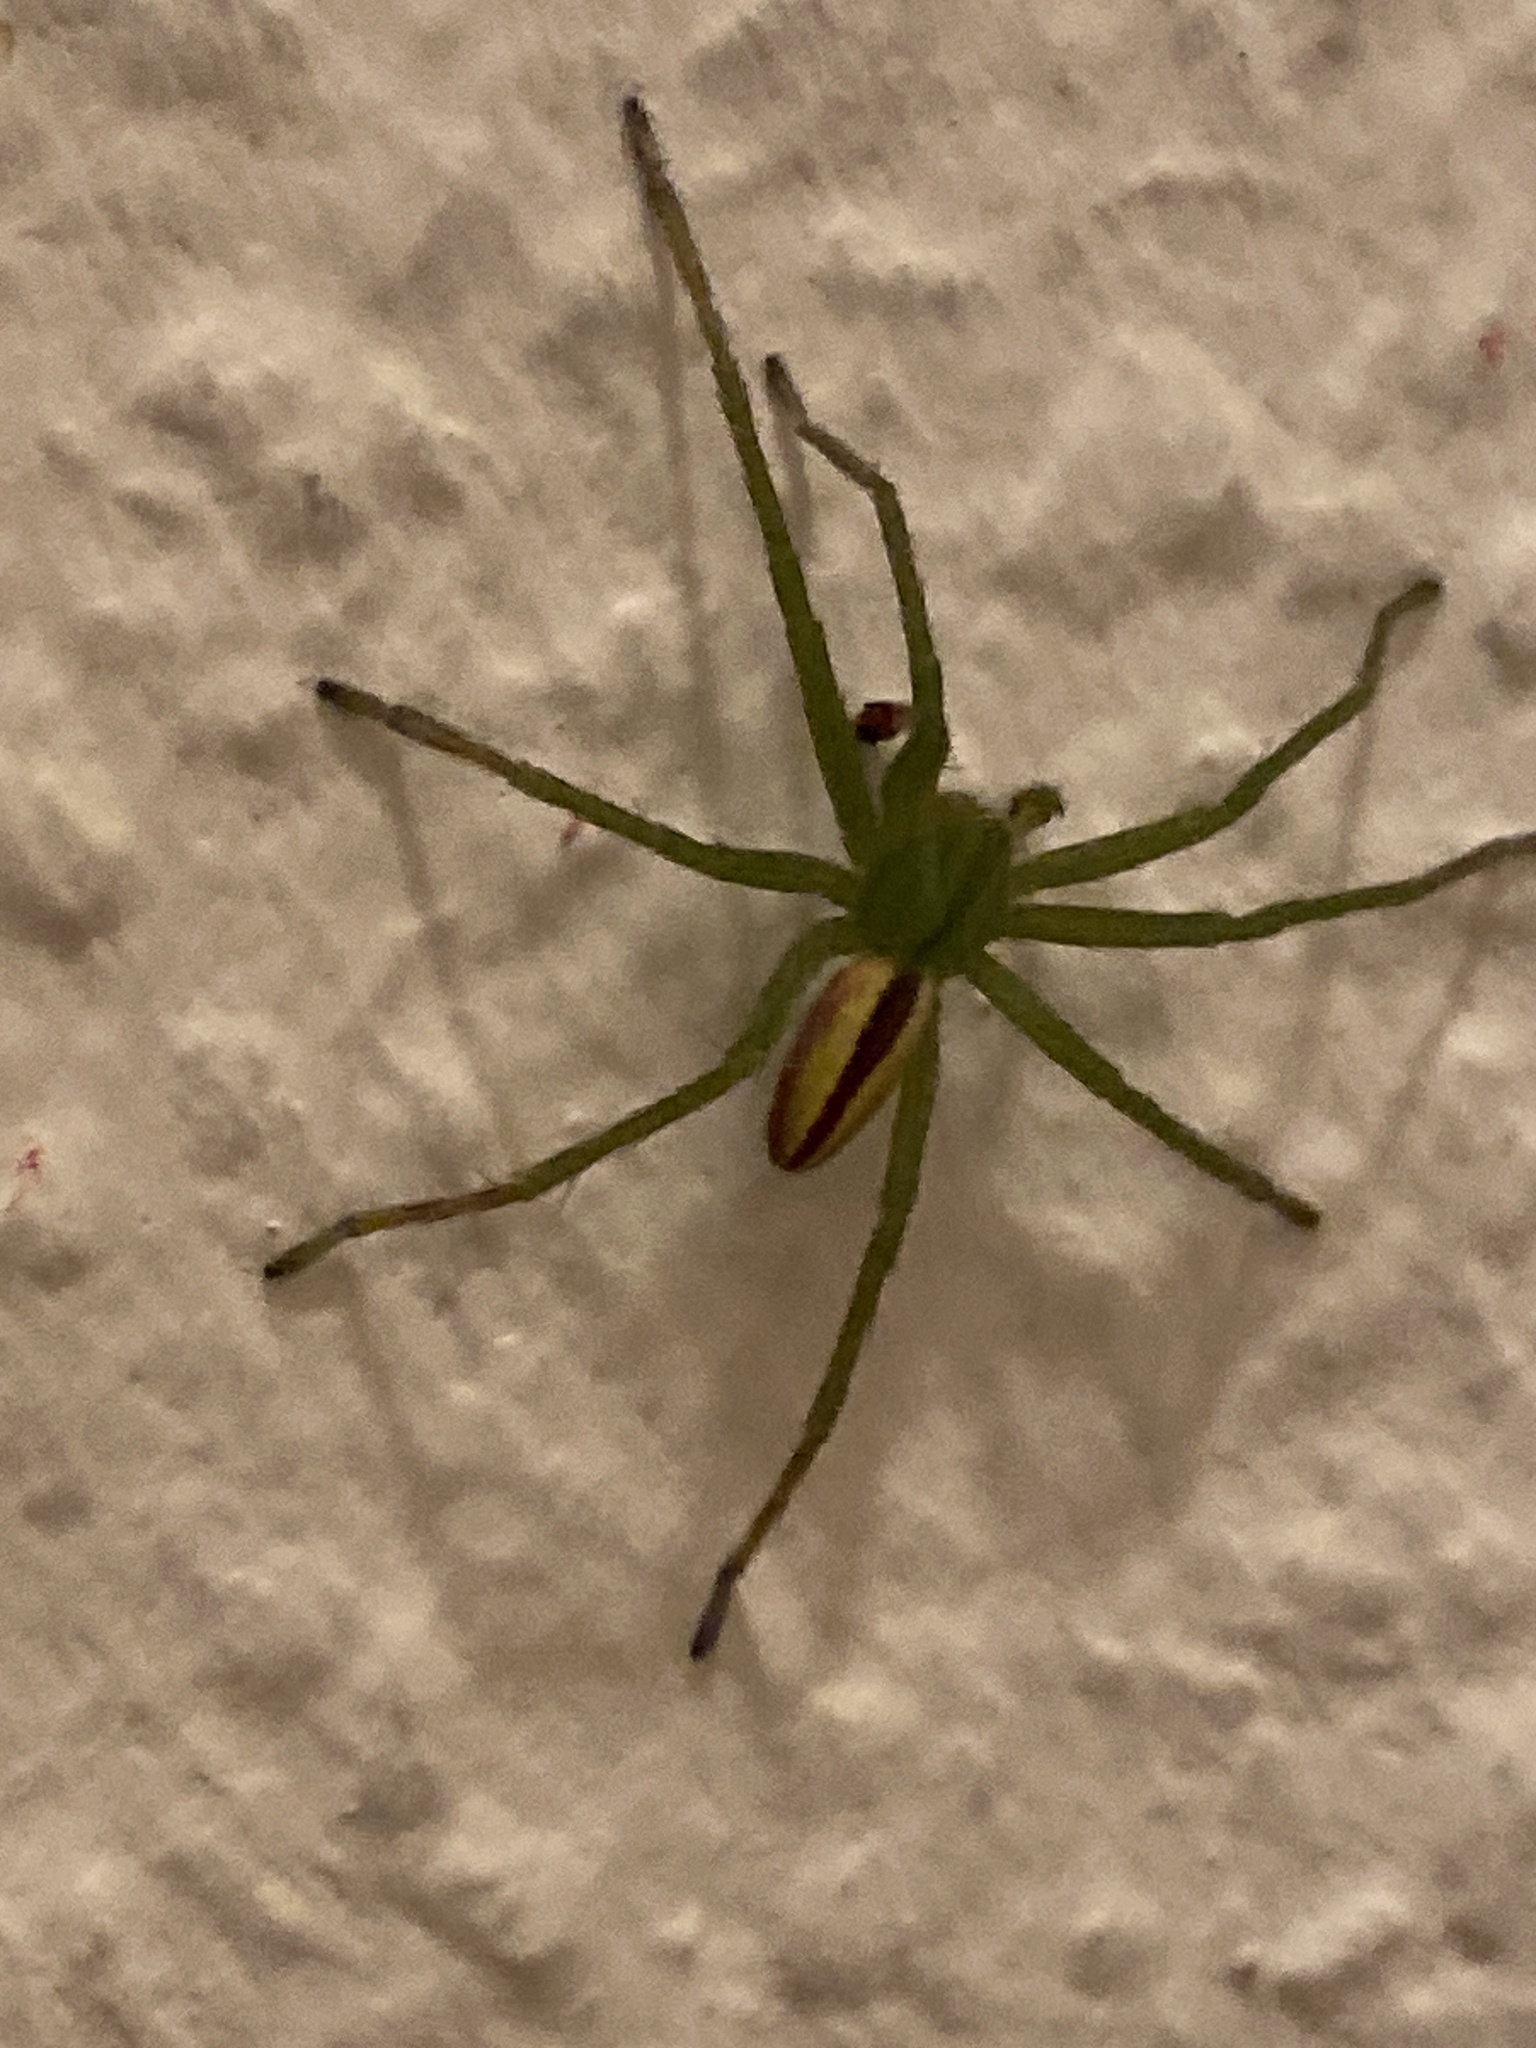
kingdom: Animalia
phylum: Arthropoda
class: Arachnida
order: Araneae
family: Sparassidae
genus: Micrommata
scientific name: Micrommata virescens
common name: Green spider
